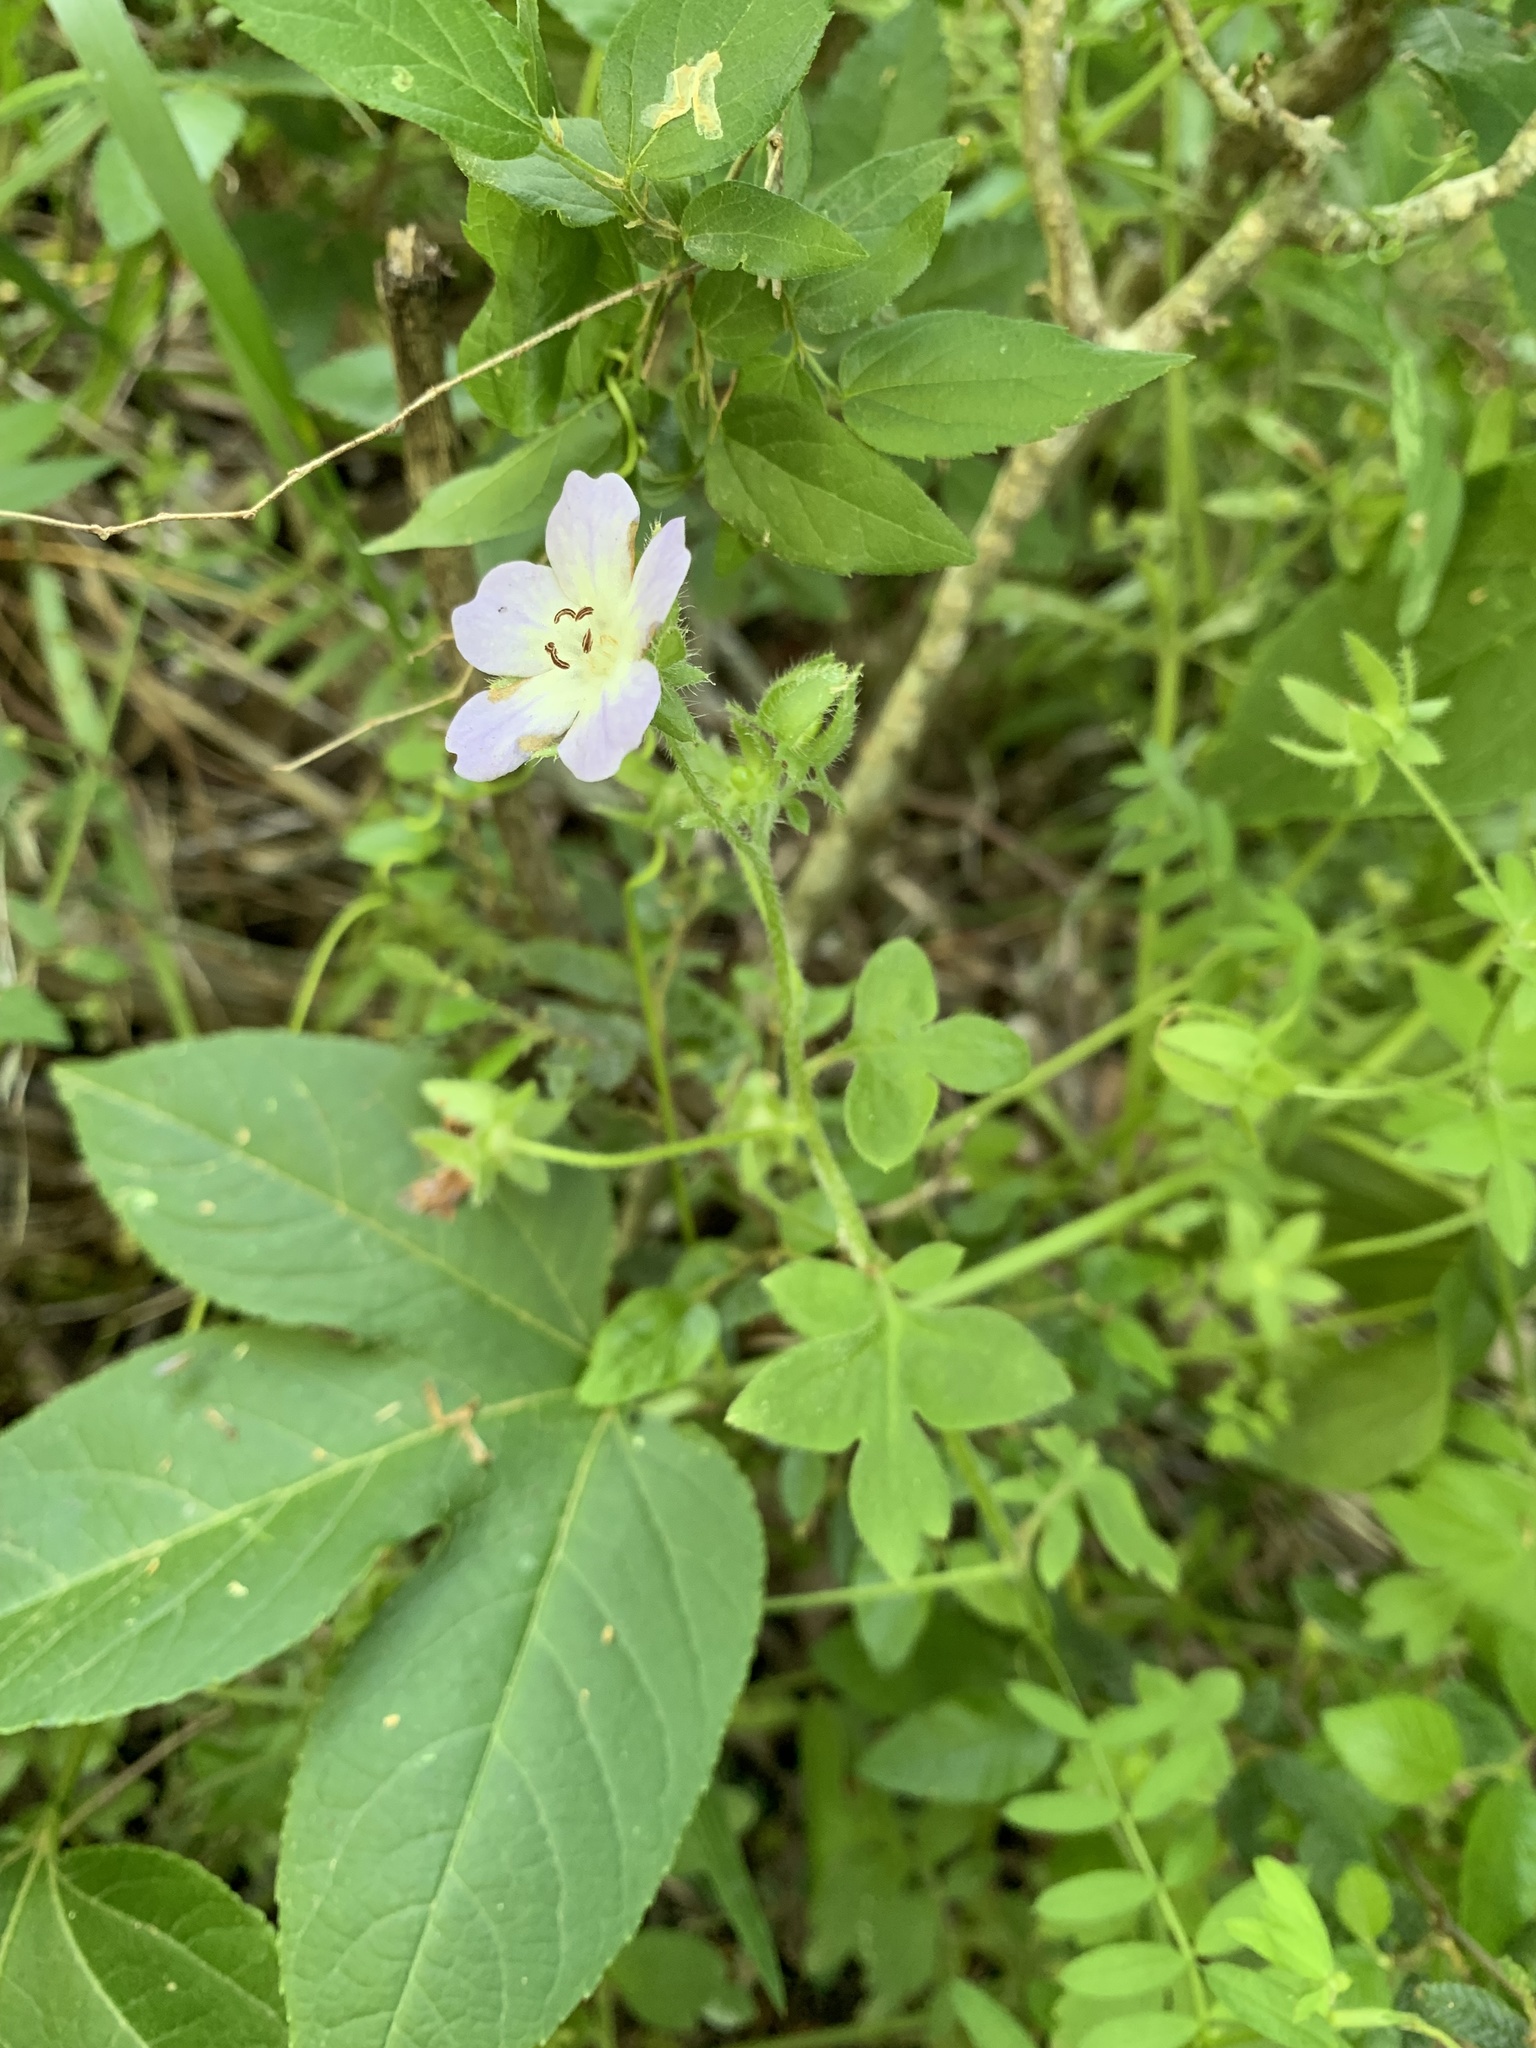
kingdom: Plantae
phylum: Tracheophyta
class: Magnoliopsida
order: Boraginales
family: Hydrophyllaceae
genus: Nemophila
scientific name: Nemophila phacelioides
